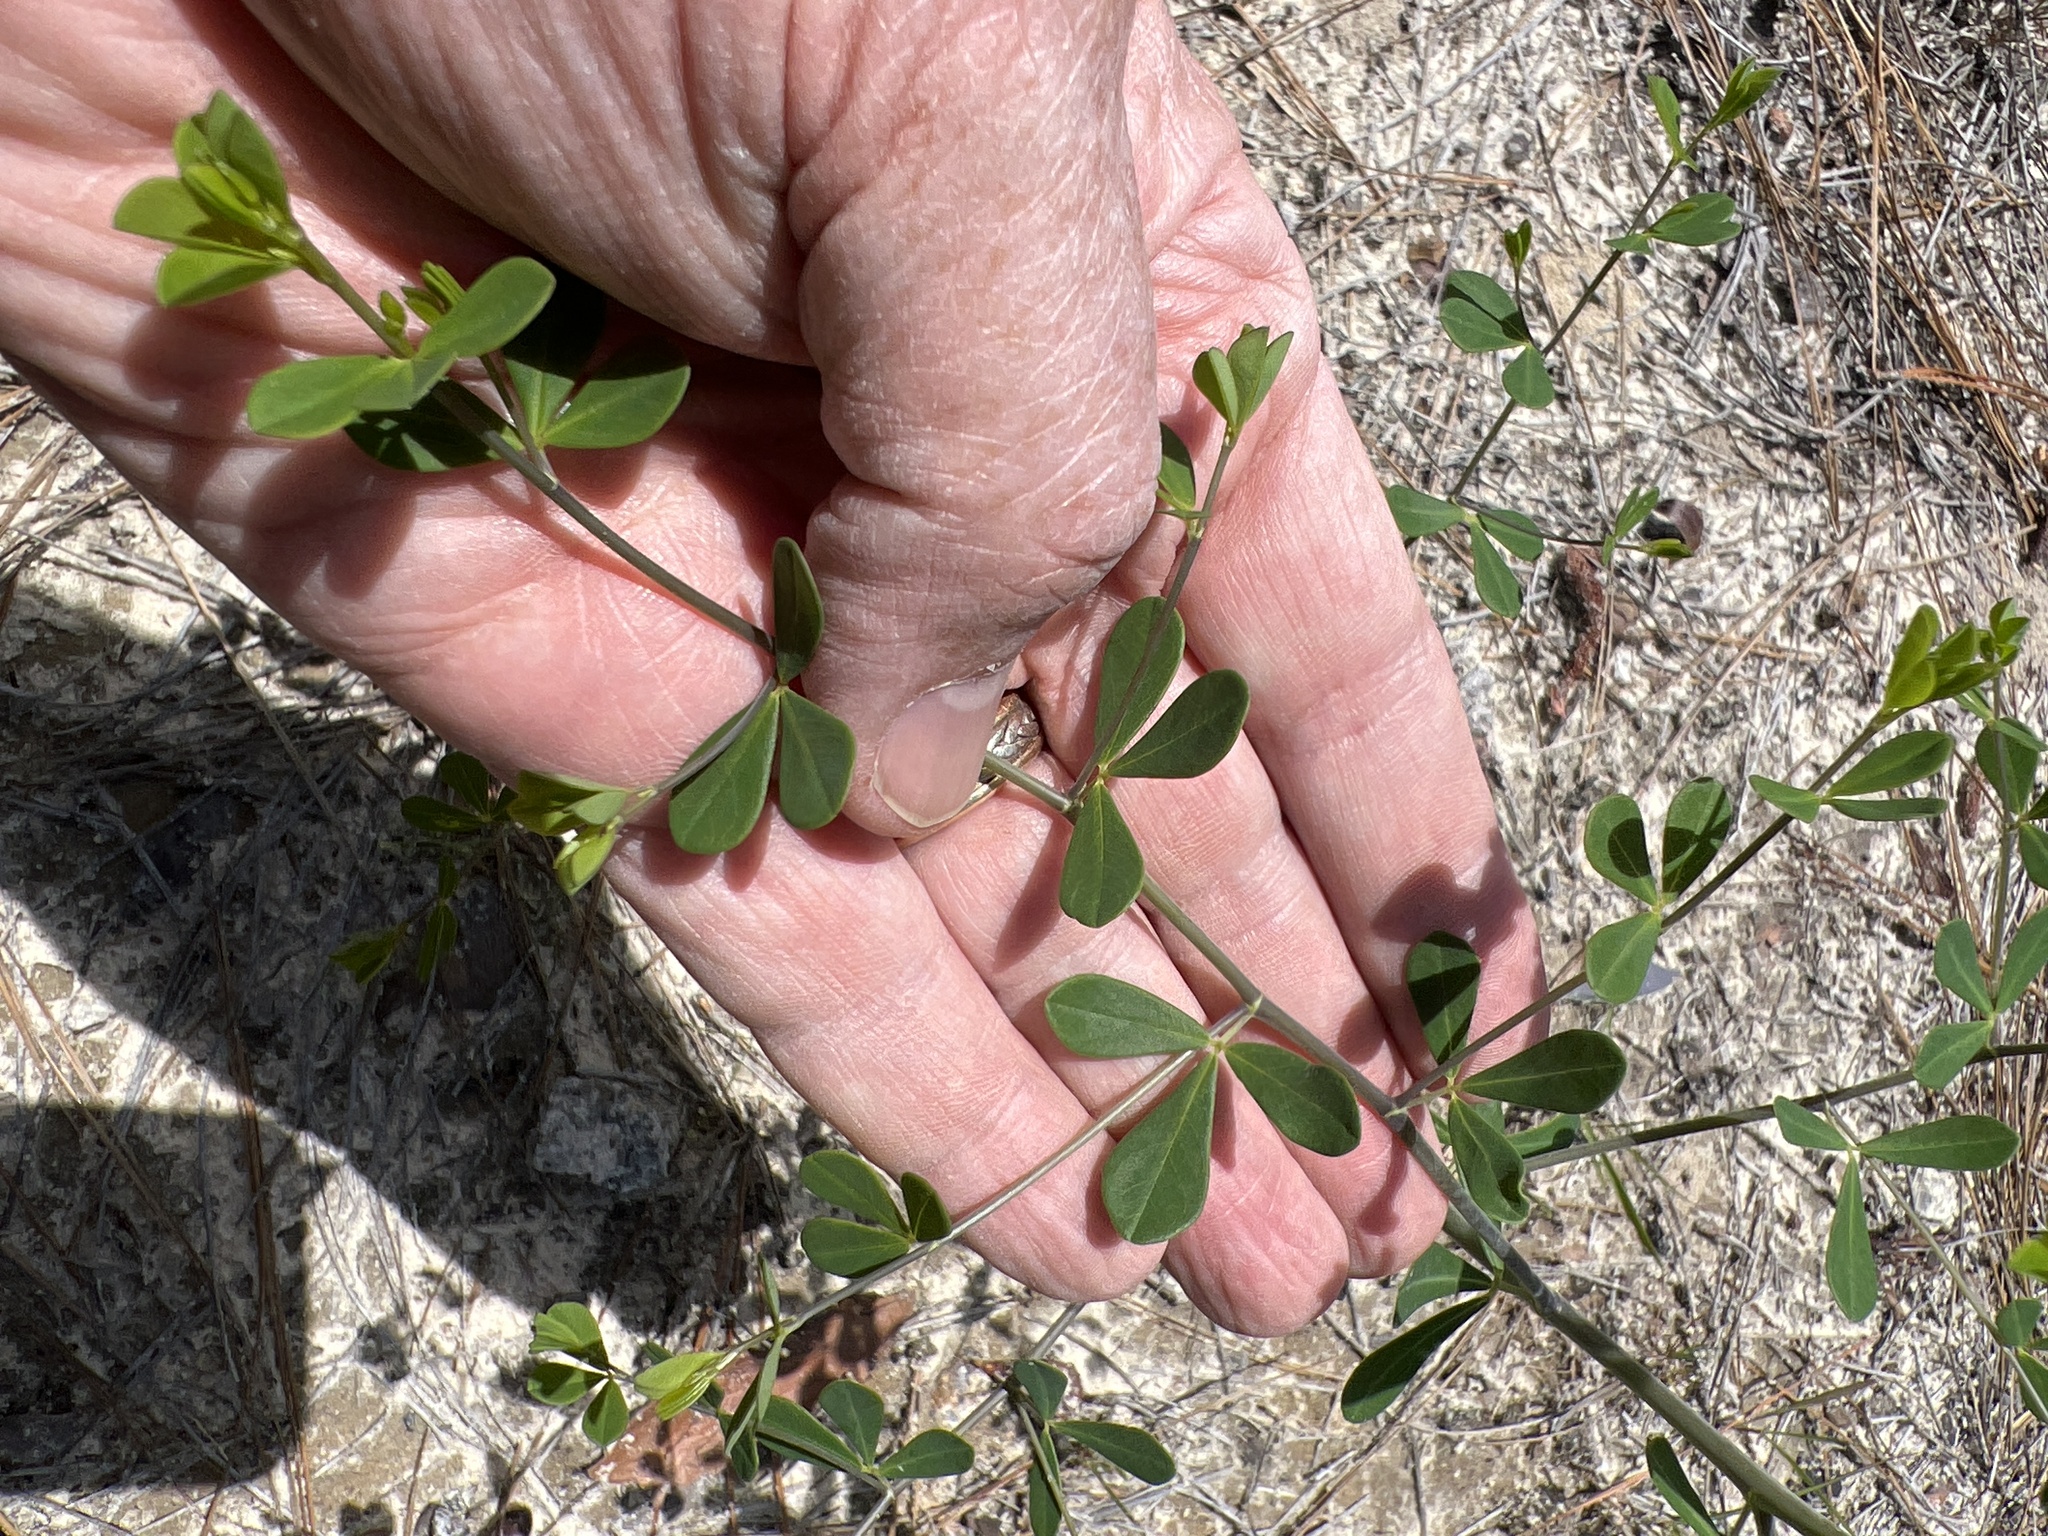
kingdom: Plantae
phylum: Tracheophyta
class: Magnoliopsida
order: Fabales
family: Fabaceae
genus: Baptisia
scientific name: Baptisia tinctoria
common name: Wild indigo
